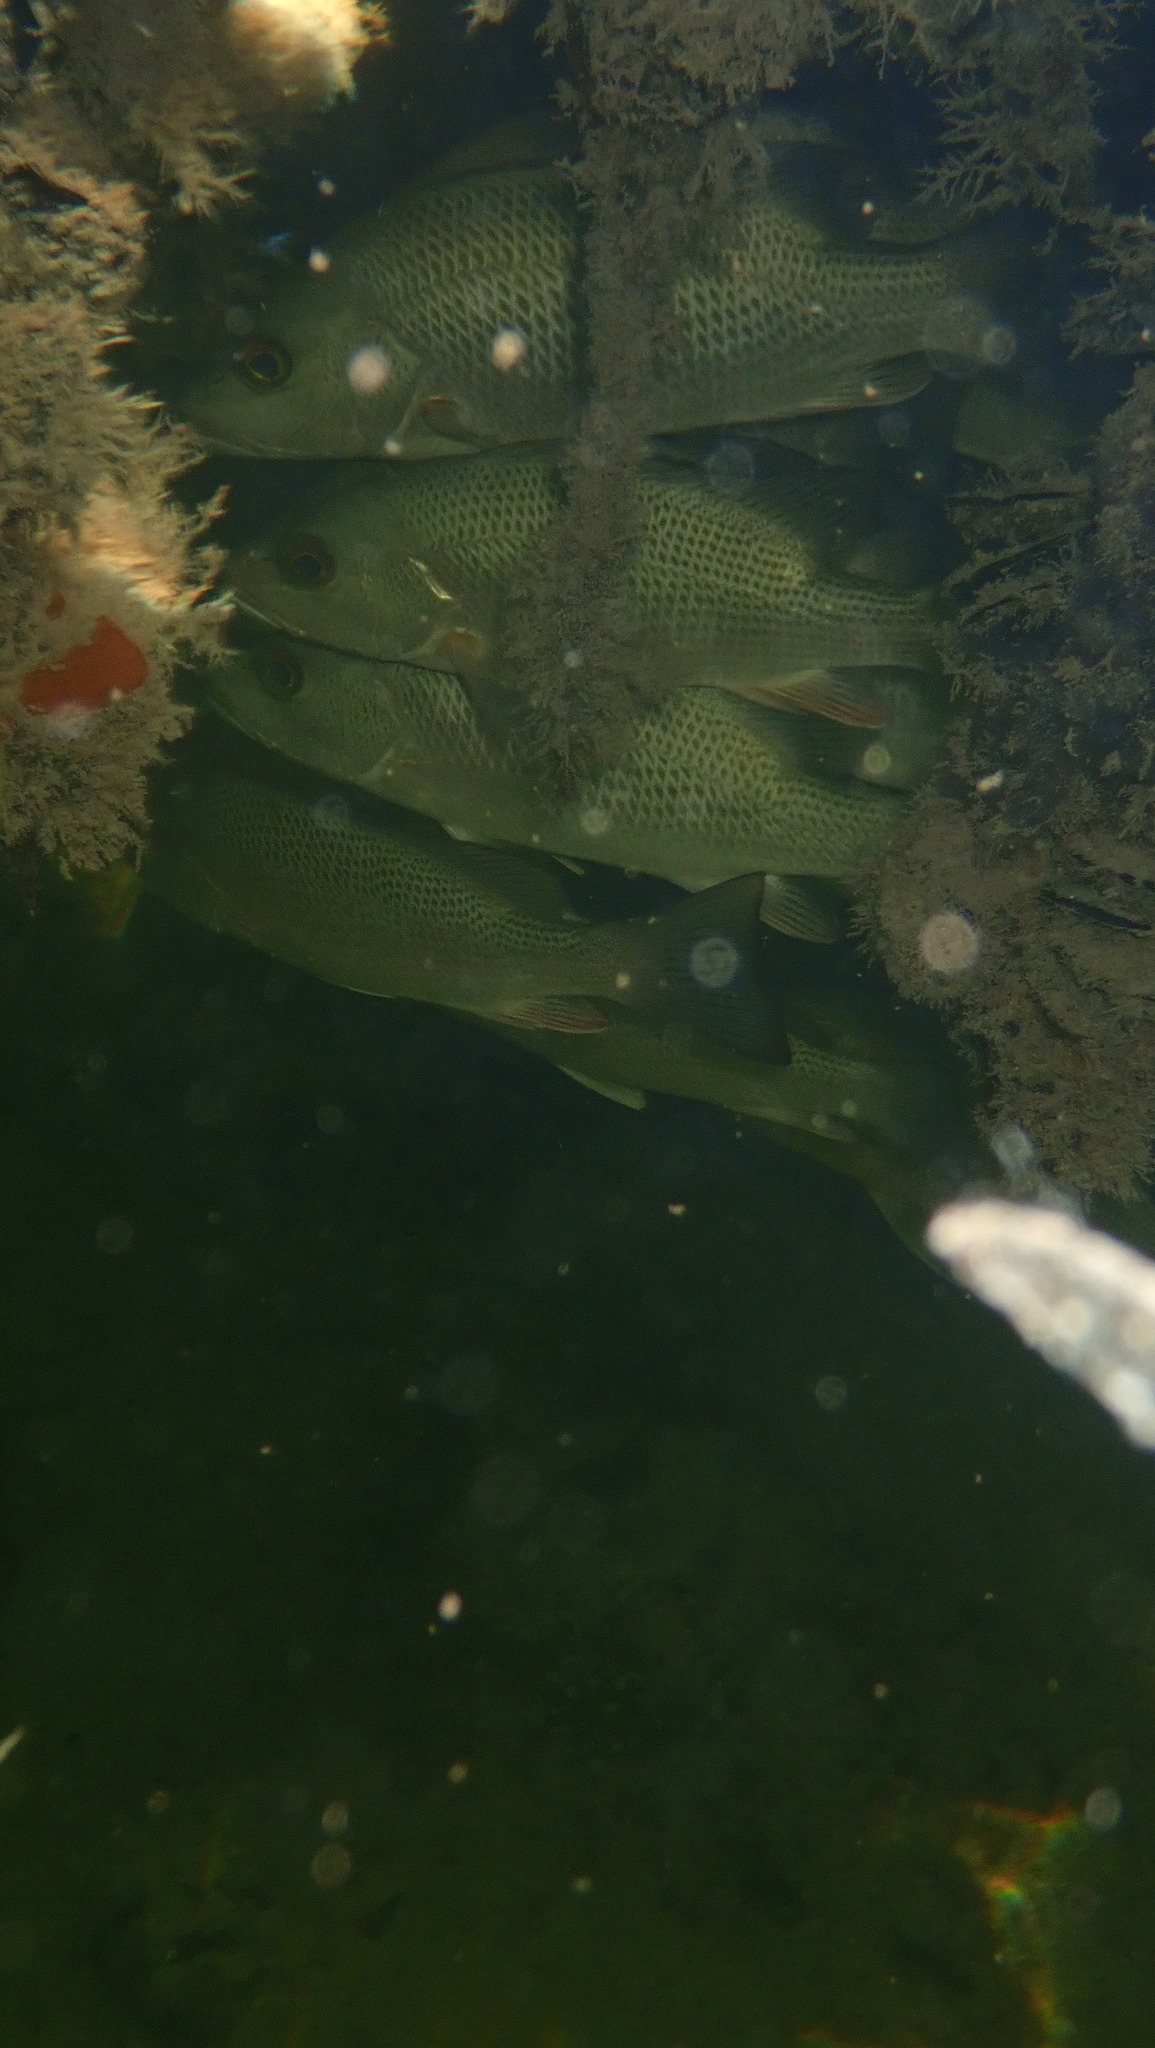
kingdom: Animalia
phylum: Chordata
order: Perciformes
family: Lutjanidae
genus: Lutjanus
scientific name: Lutjanus griseus
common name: Gray snapper
